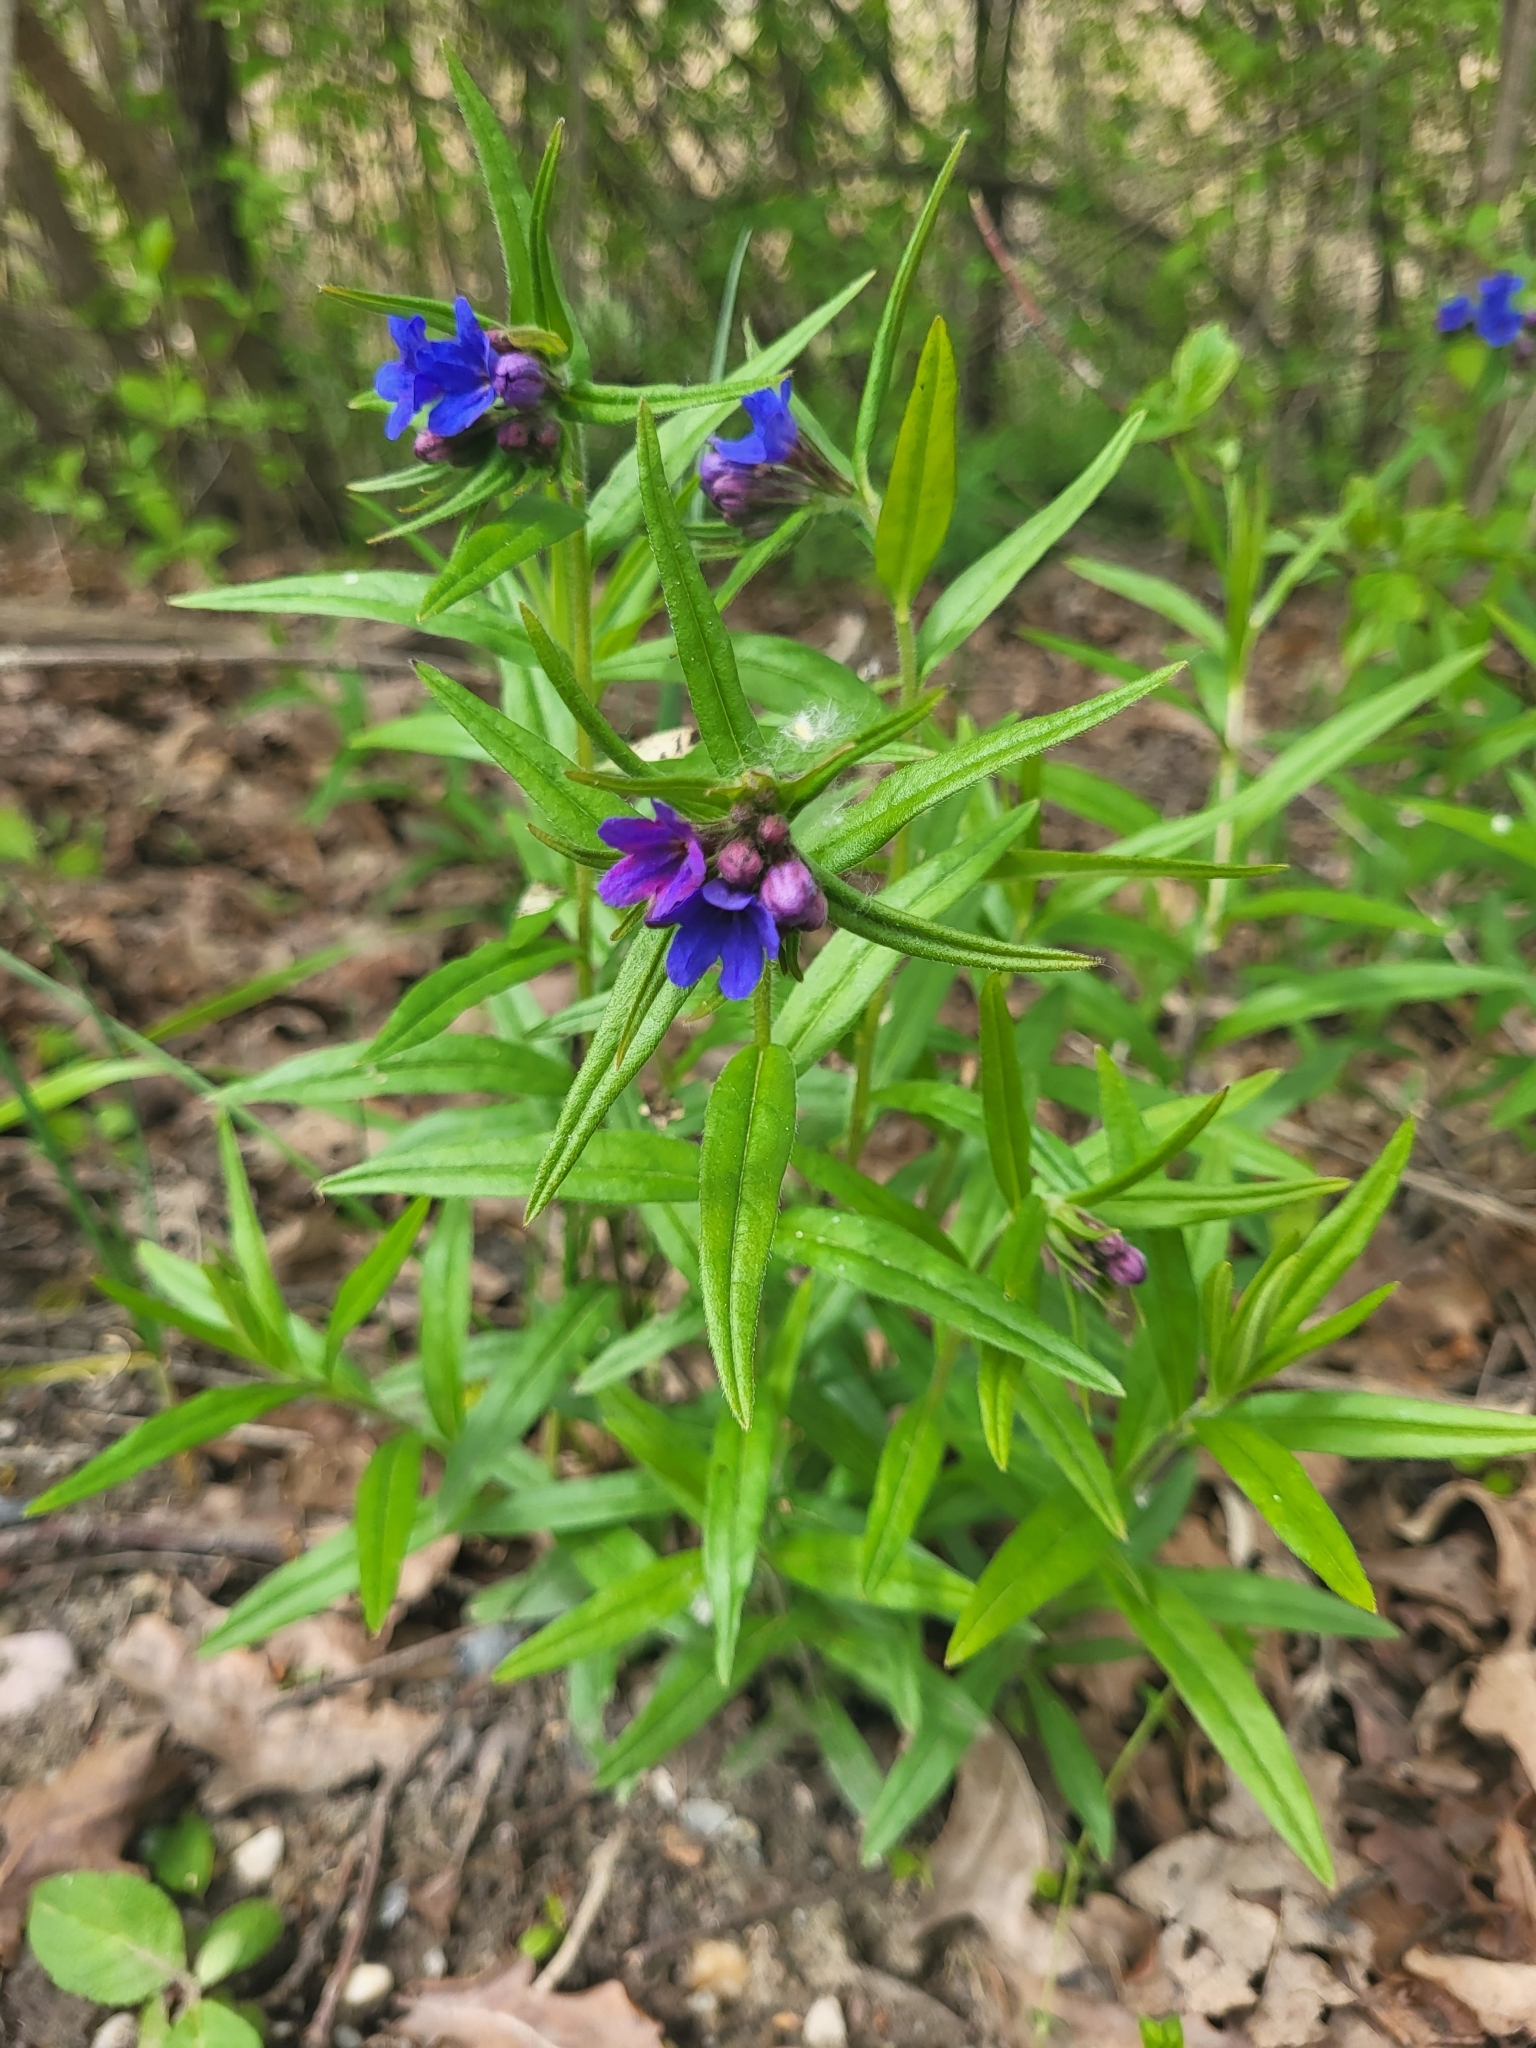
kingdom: Plantae
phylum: Tracheophyta
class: Magnoliopsida
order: Boraginales
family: Boraginaceae
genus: Aegonychon
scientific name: Aegonychon purpurocaeruleum
